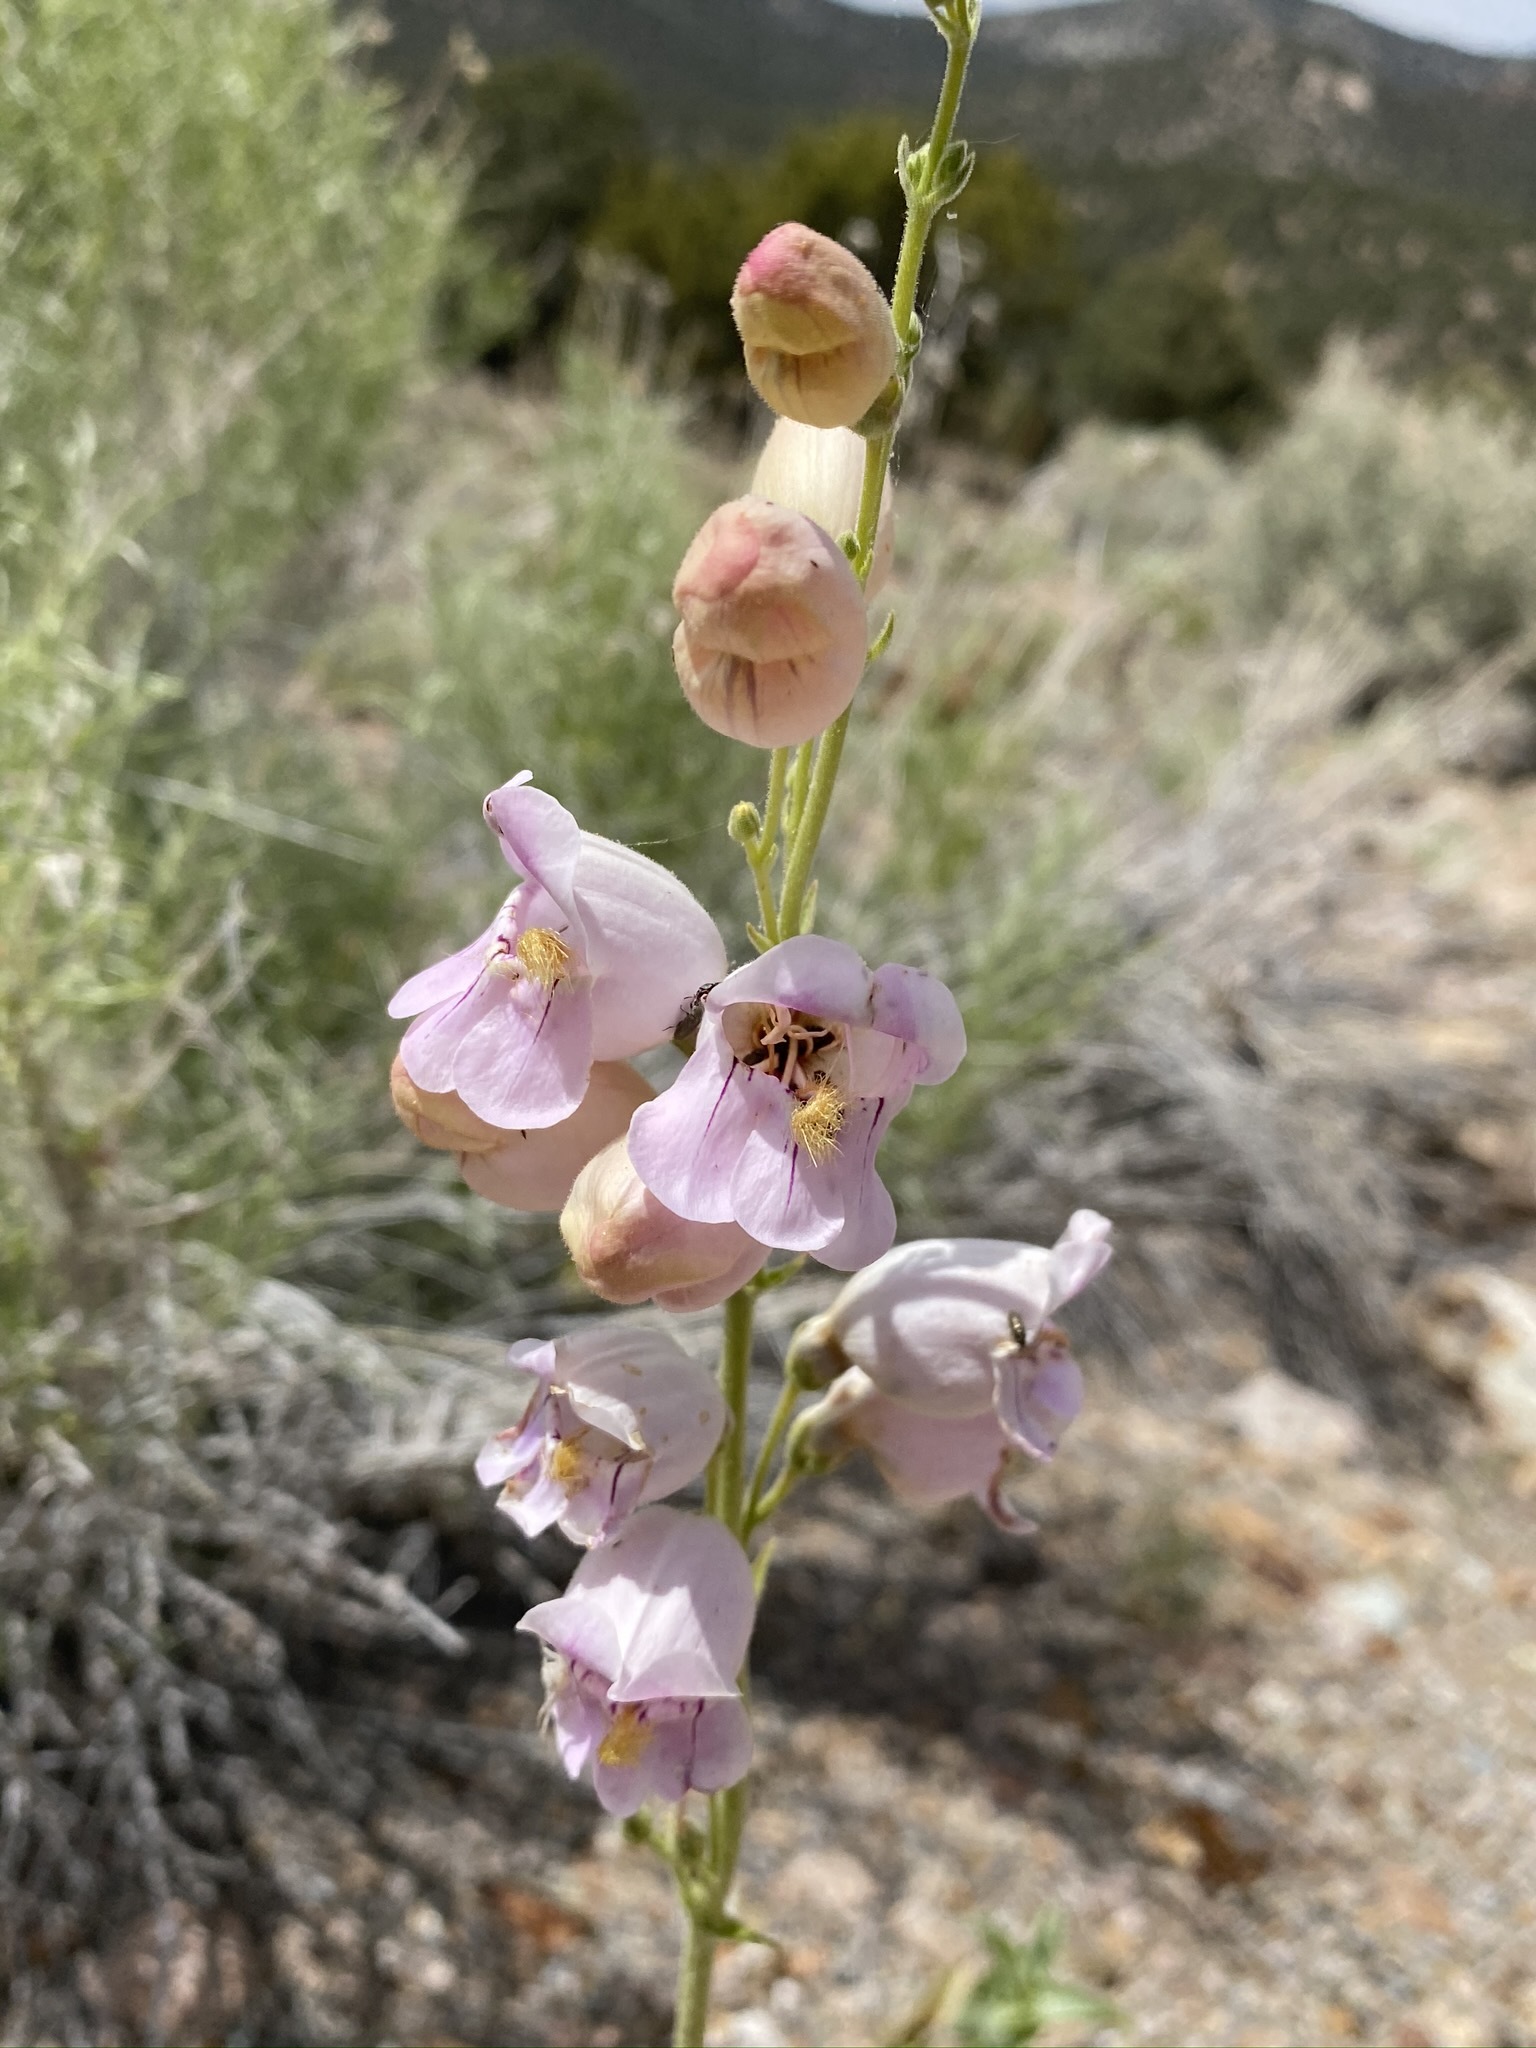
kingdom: Plantae
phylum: Tracheophyta
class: Magnoliopsida
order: Lamiales
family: Plantaginaceae
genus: Penstemon
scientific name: Penstemon palmeri
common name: Palmer penstemon
